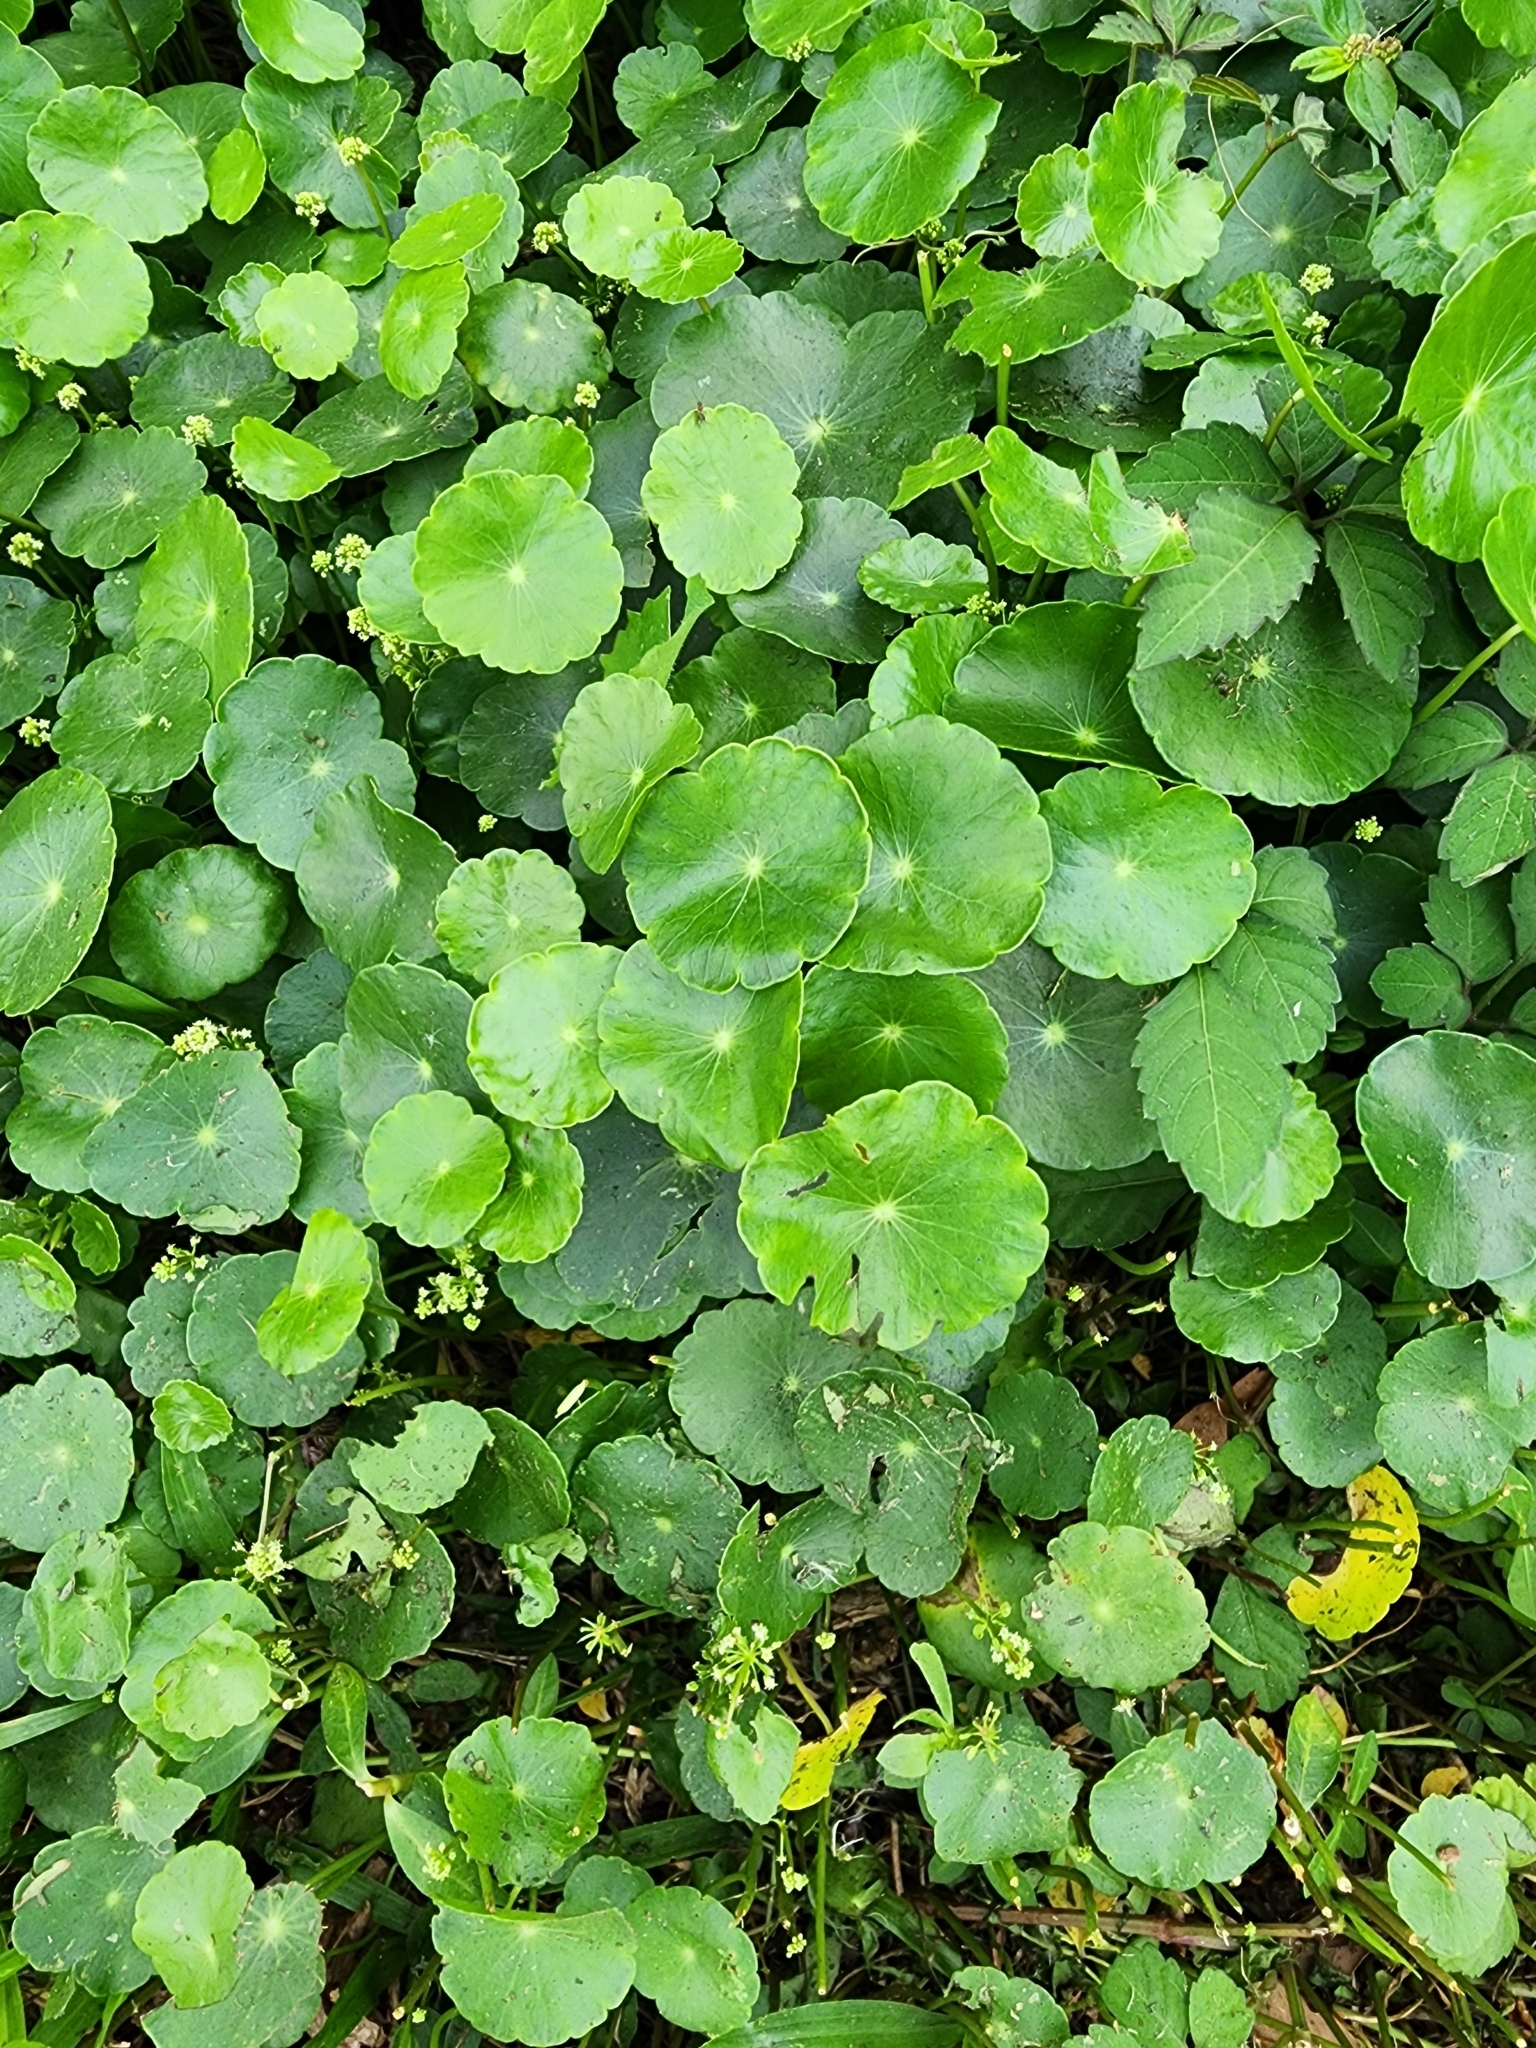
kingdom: Plantae
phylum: Tracheophyta
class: Magnoliopsida
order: Apiales
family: Araliaceae
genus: Hydrocotyle
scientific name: Hydrocotyle verticillata
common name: Whorled marshpennywort
